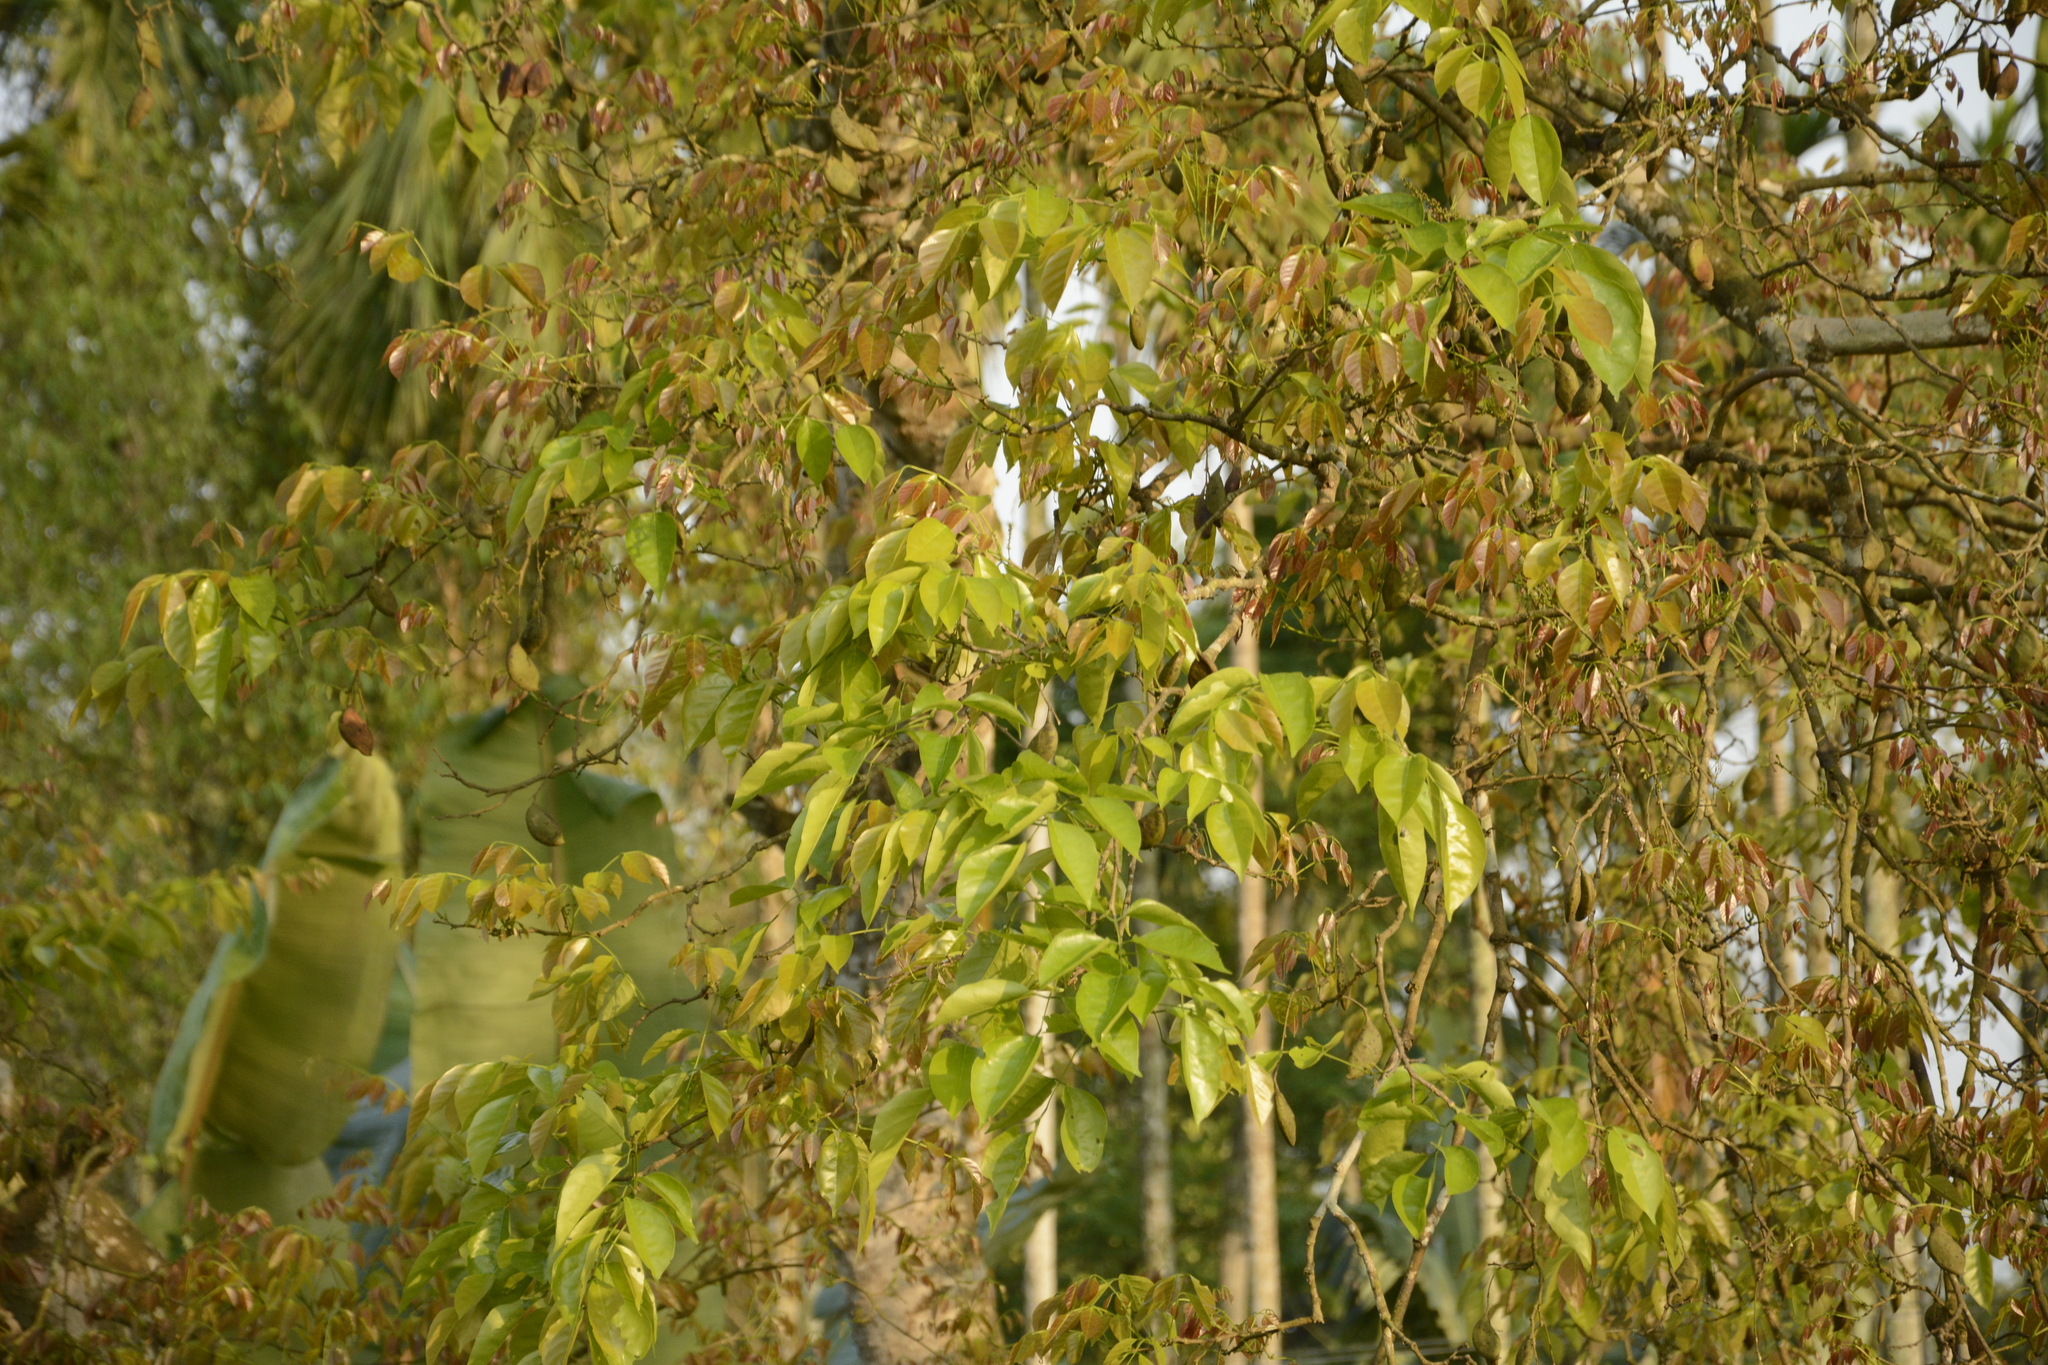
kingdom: Plantae
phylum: Tracheophyta
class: Magnoliopsida
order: Fabales
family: Fabaceae
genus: Pongamia
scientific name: Pongamia pinnata
